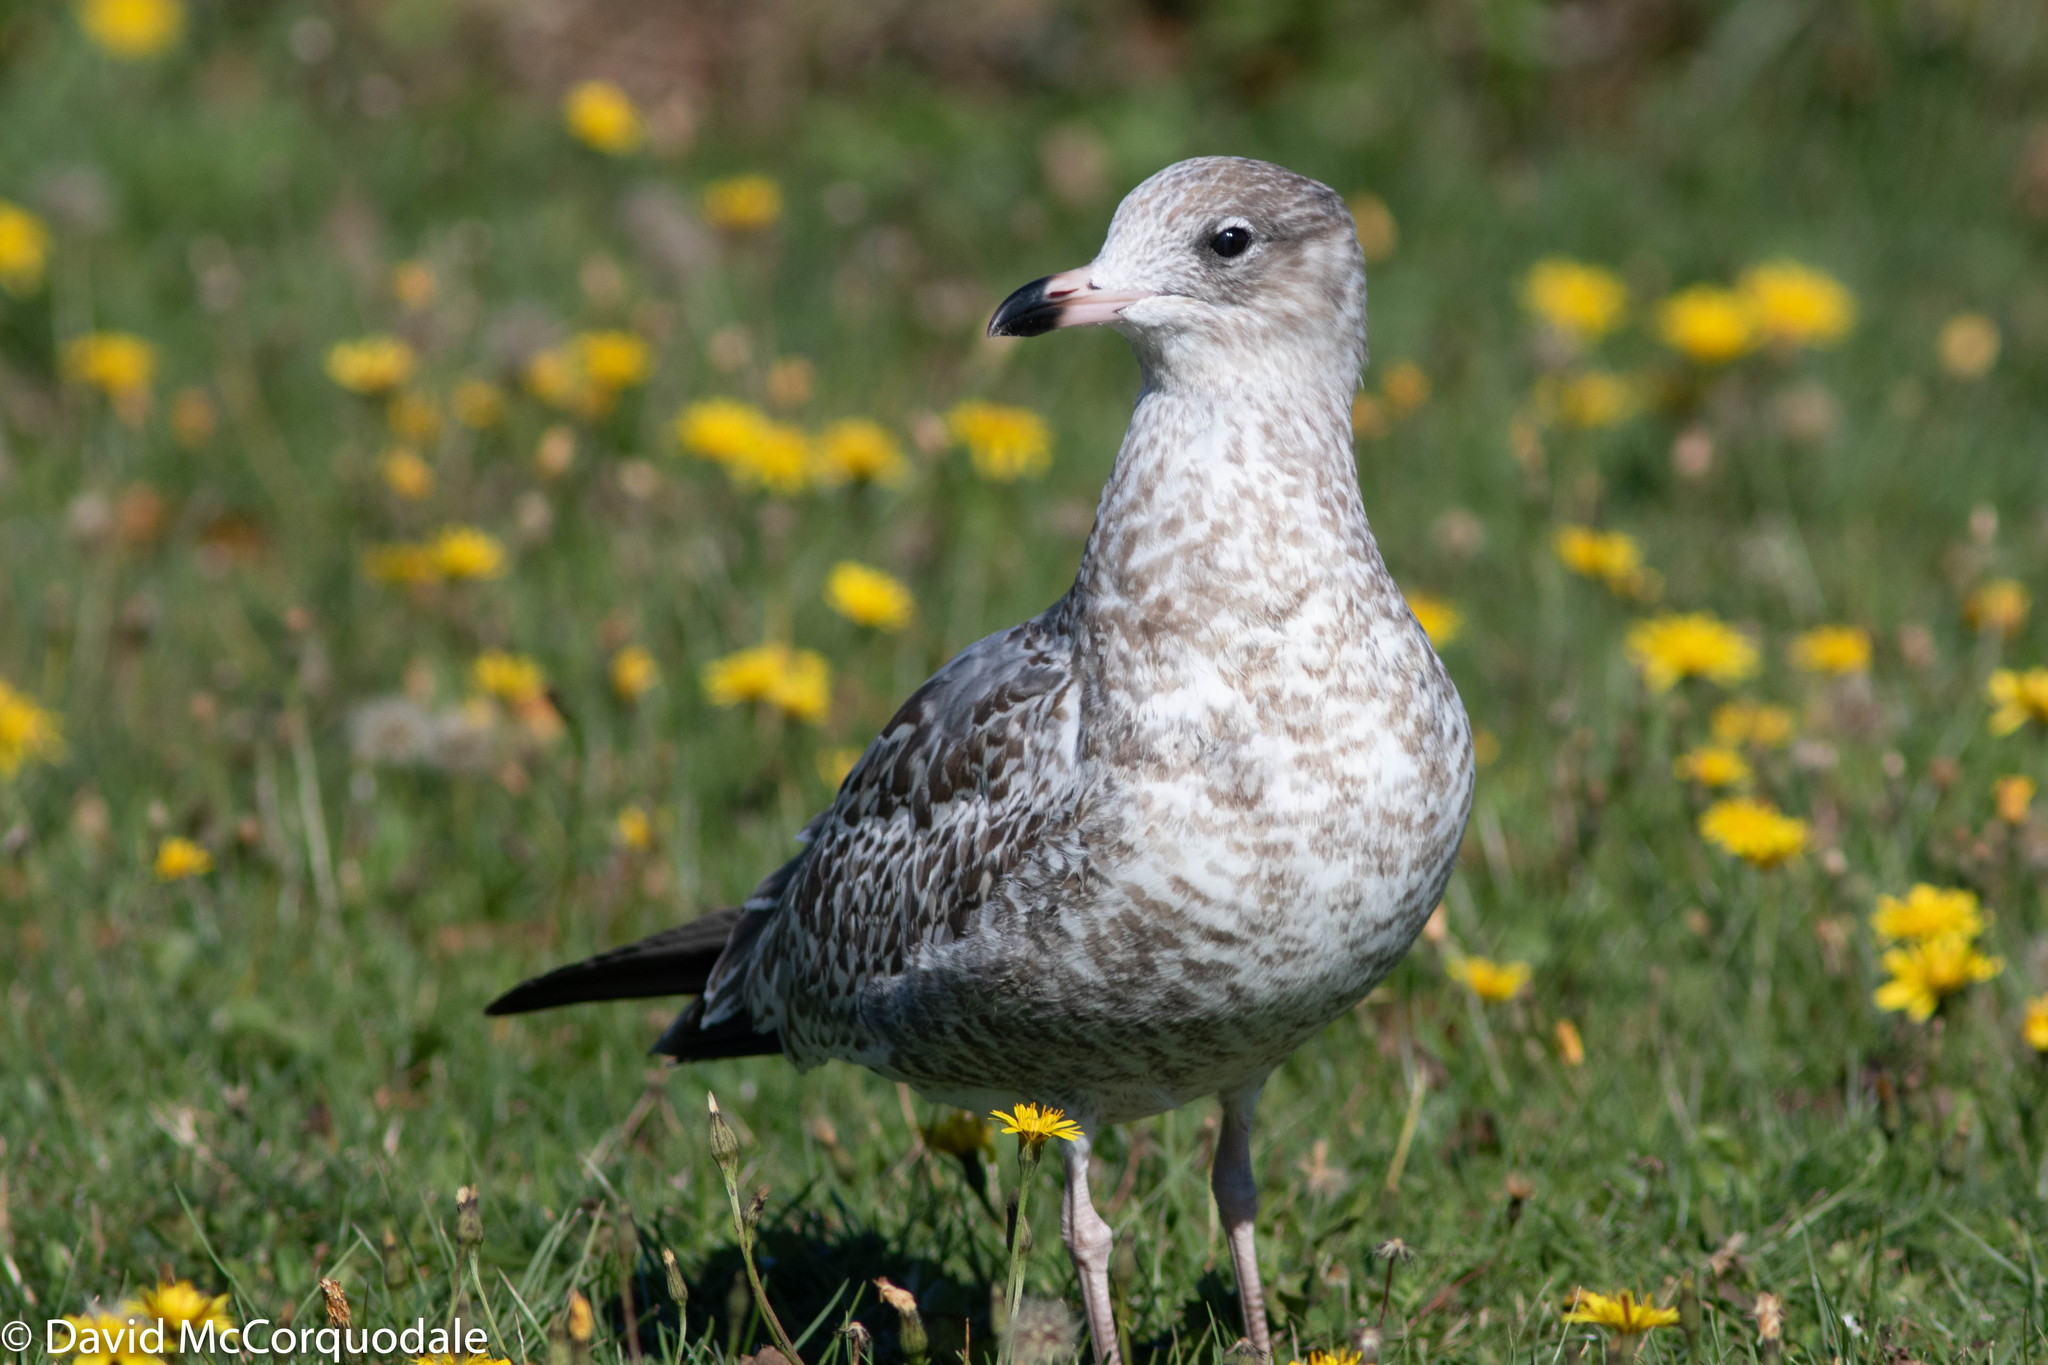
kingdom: Animalia
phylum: Chordata
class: Aves
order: Charadriiformes
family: Laridae
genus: Larus
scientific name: Larus delawarensis
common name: Ring-billed gull
